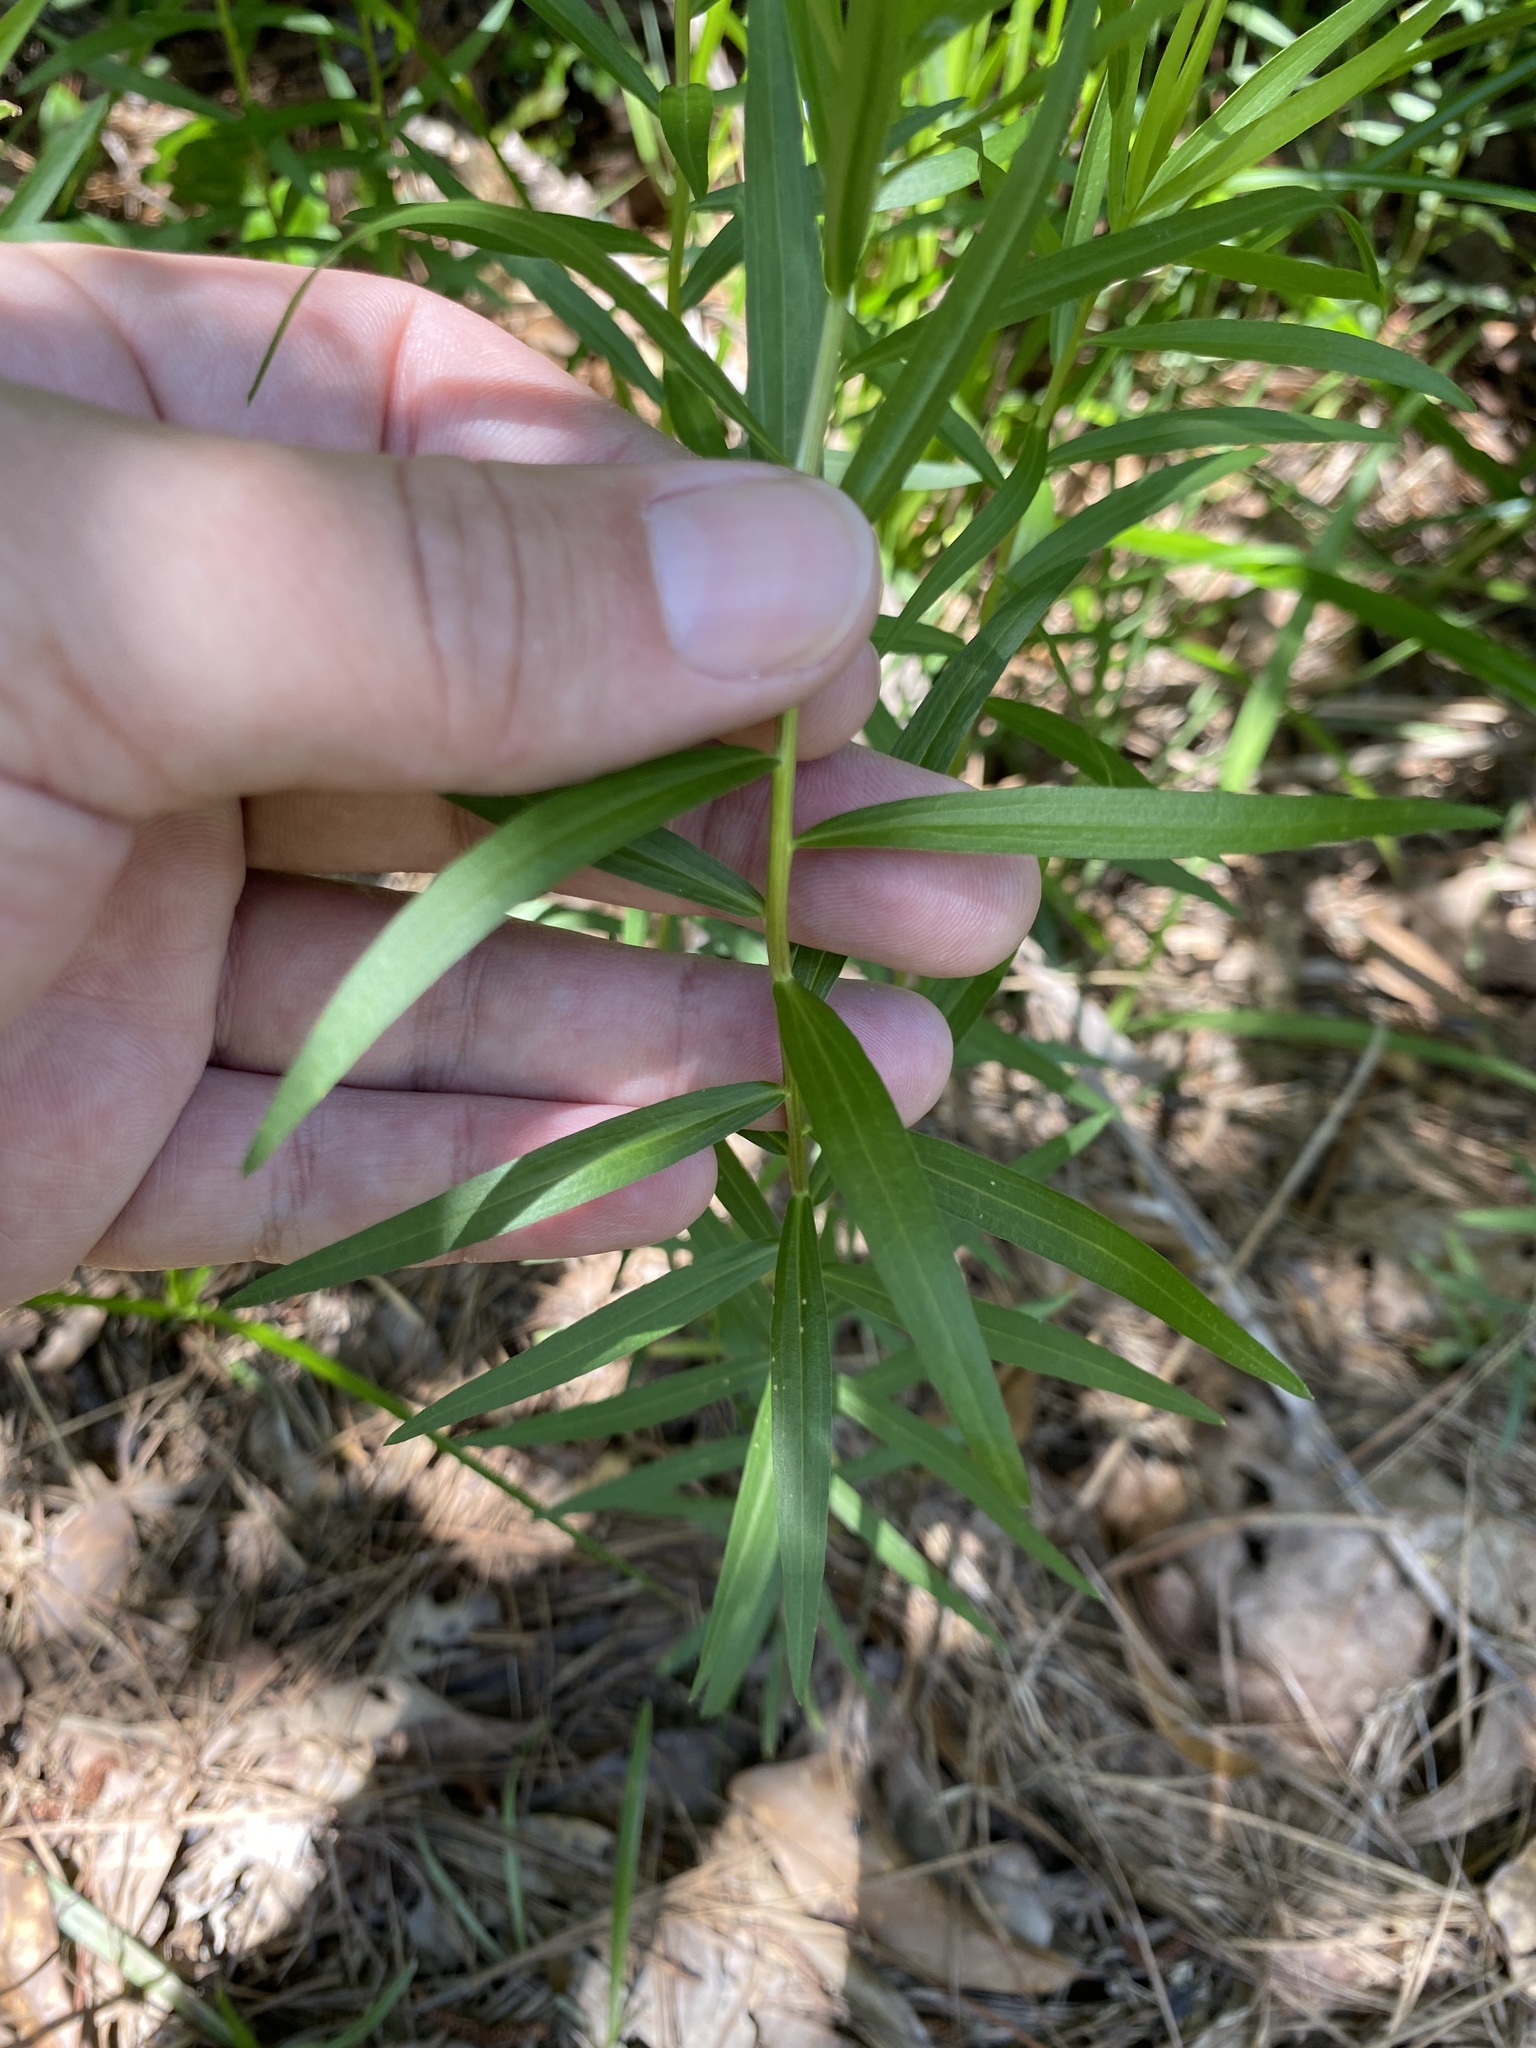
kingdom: Plantae
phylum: Tracheophyta
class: Magnoliopsida
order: Asterales
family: Asteraceae
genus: Euthamia
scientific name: Euthamia leptocephala
